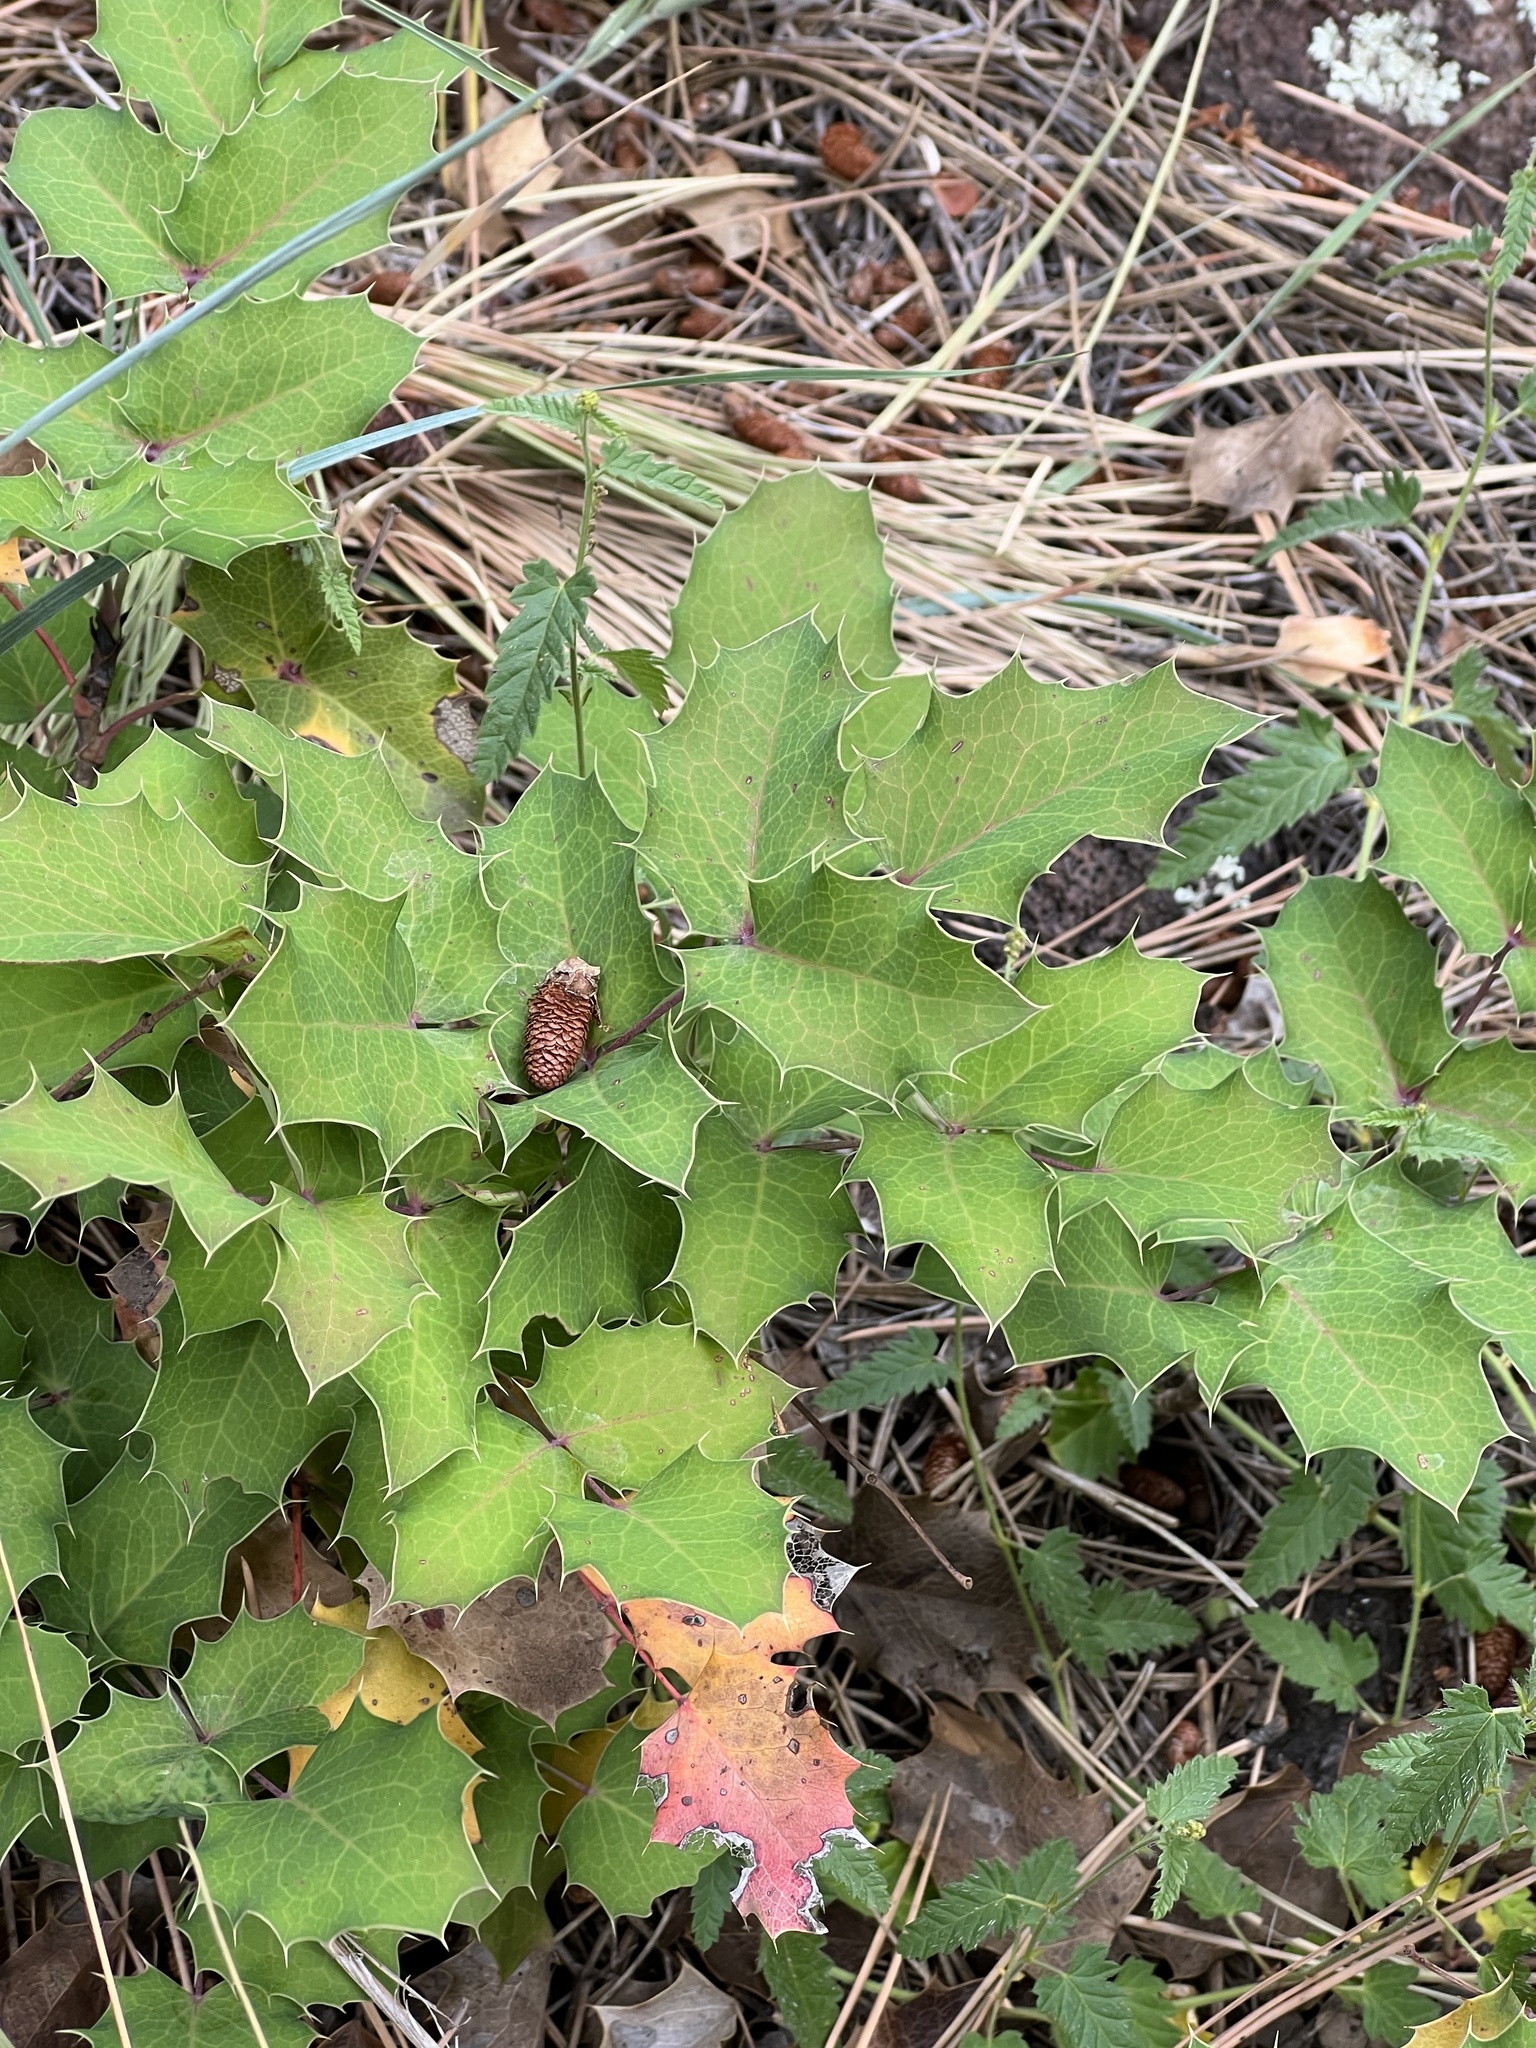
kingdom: Plantae
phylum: Tracheophyta
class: Magnoliopsida
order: Ranunculales
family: Berberidaceae
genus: Mahonia
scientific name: Mahonia repens
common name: Creeping oregon-grape
